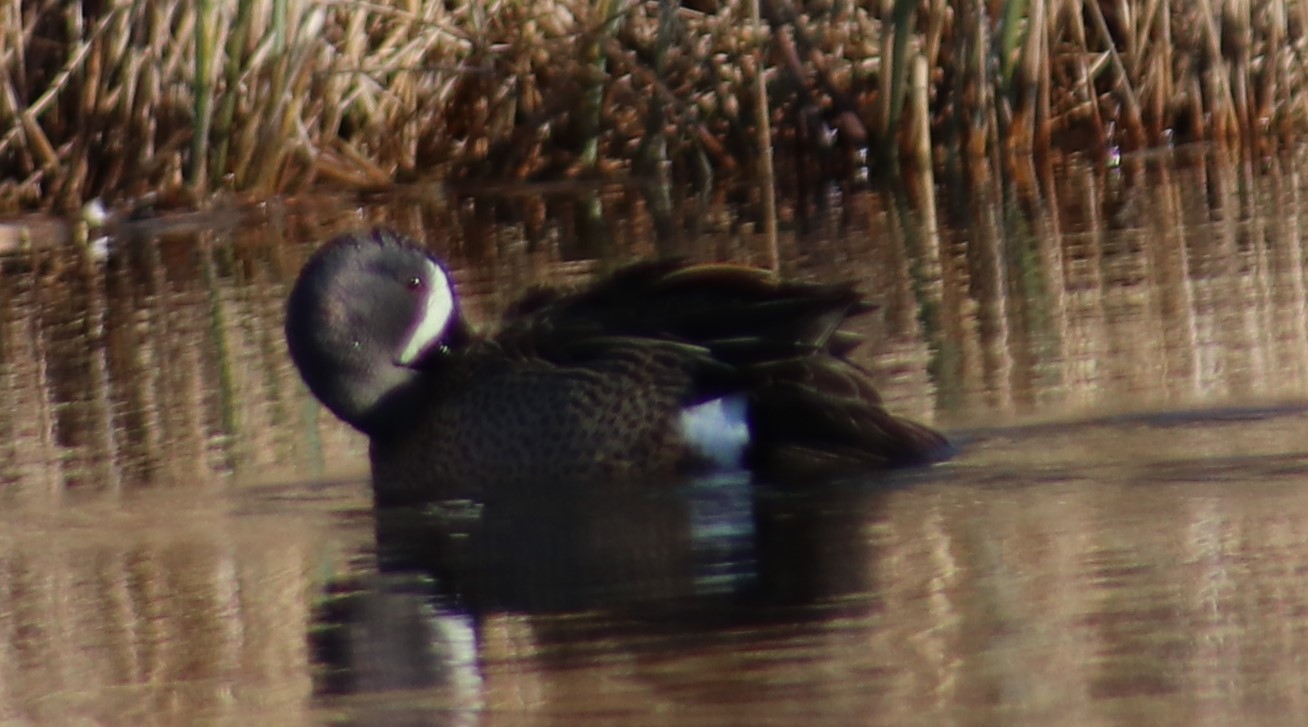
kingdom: Animalia
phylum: Chordata
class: Aves
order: Anseriformes
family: Anatidae
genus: Spatula
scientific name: Spatula discors
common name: Blue-winged teal
